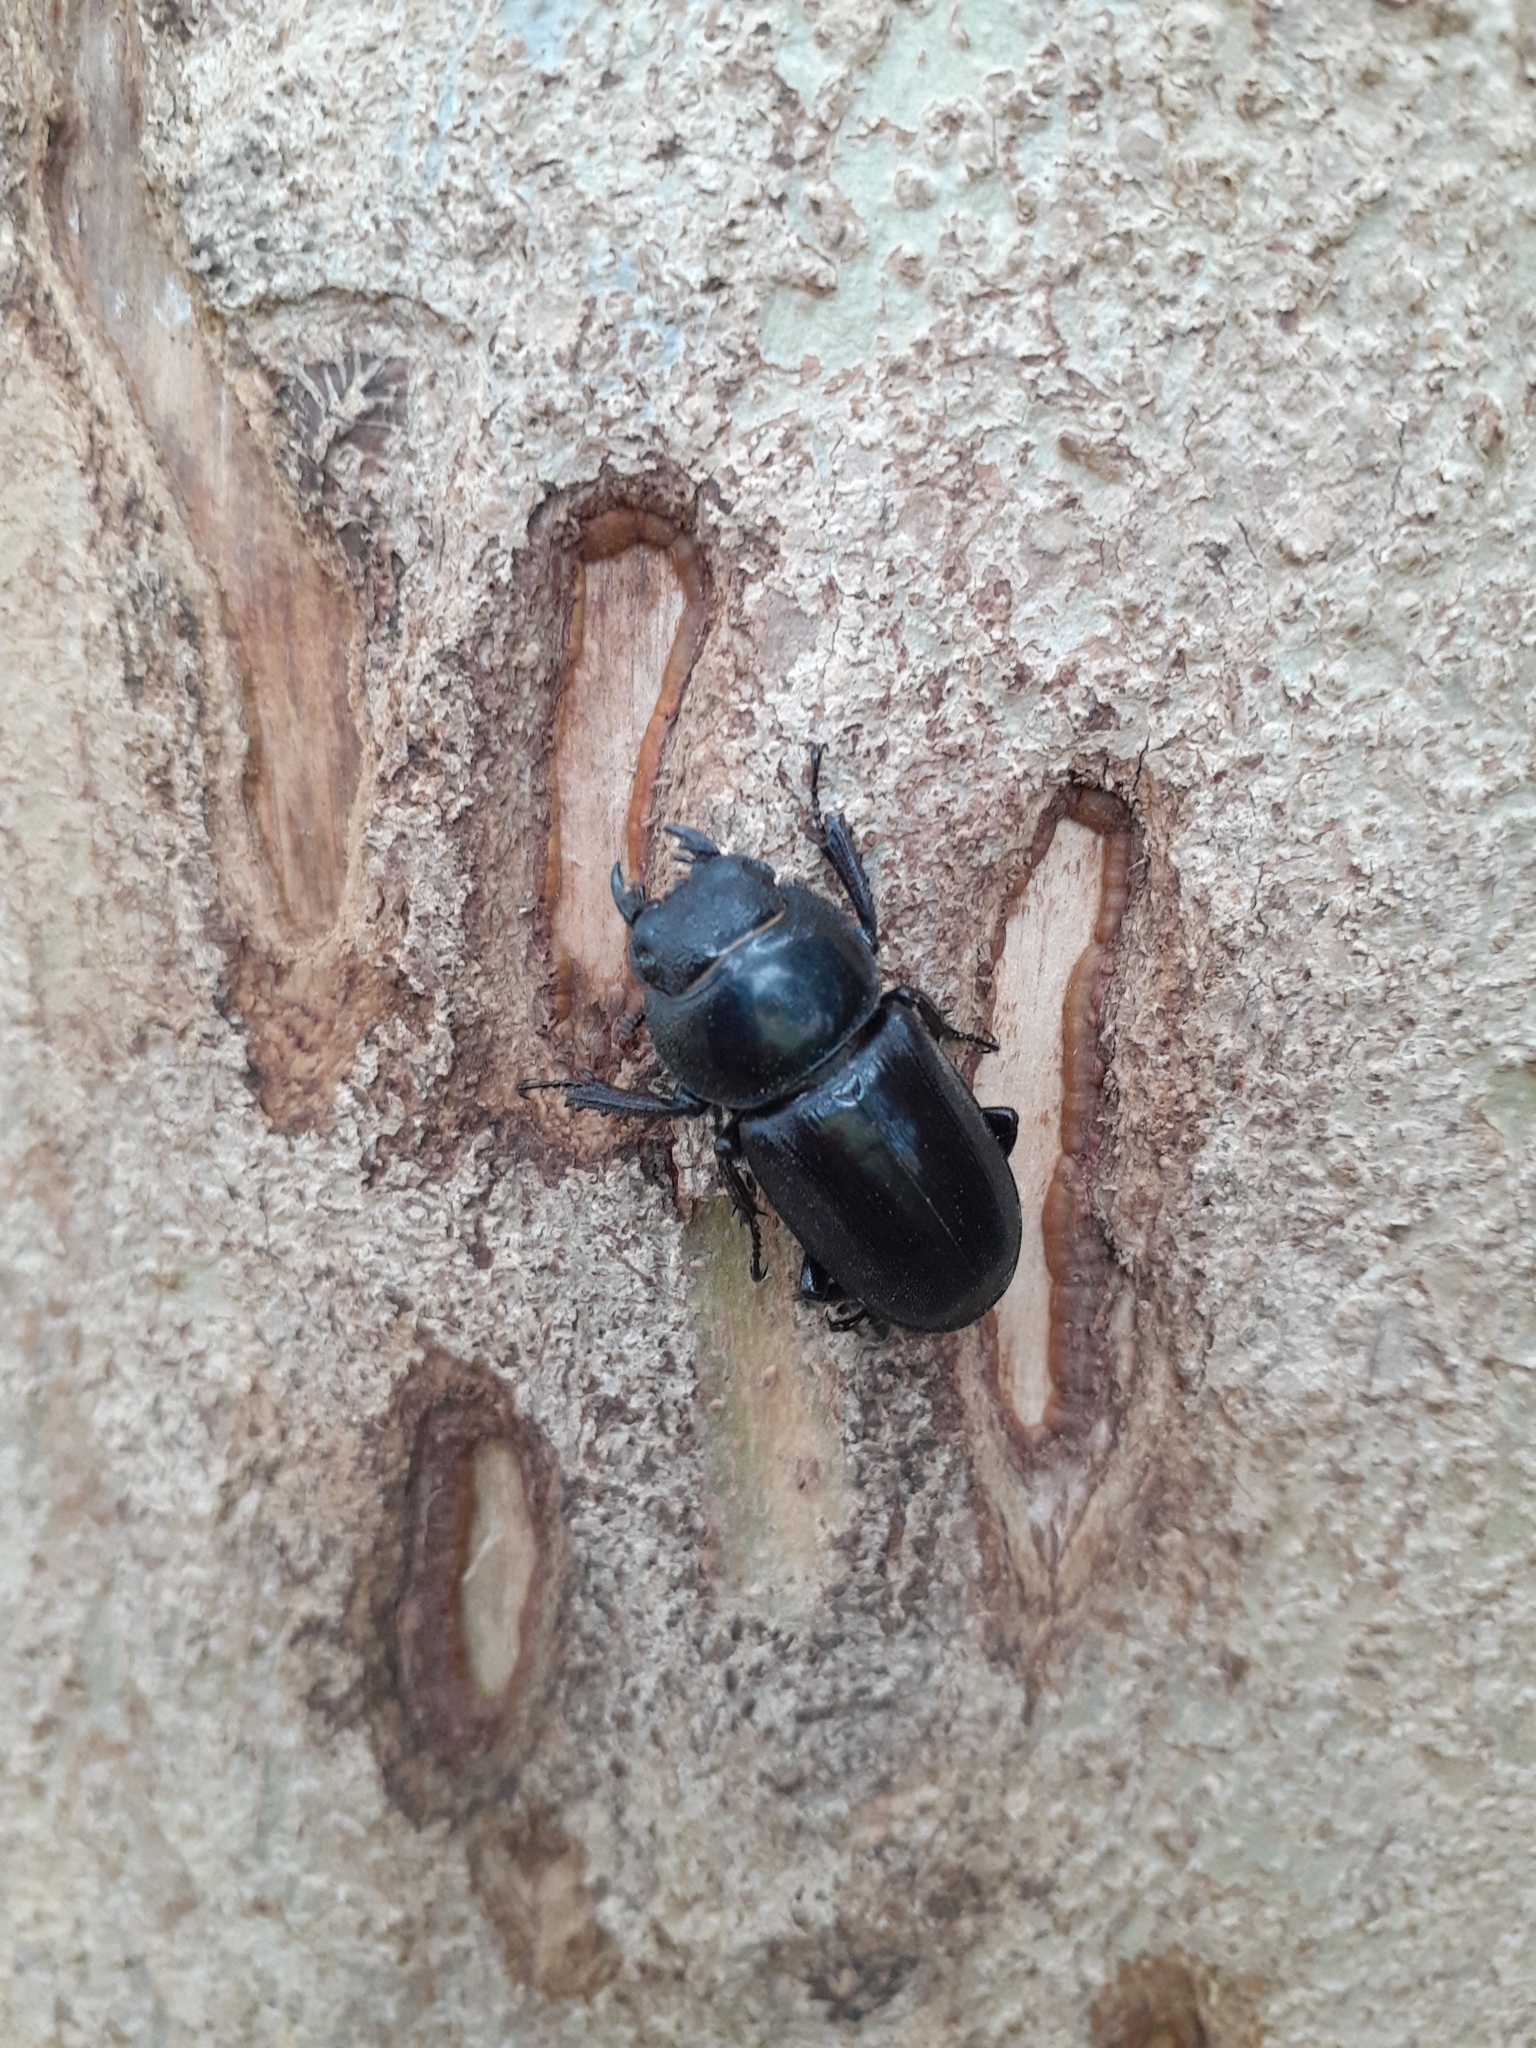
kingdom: Animalia
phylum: Arthropoda
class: Insecta
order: Coleoptera
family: Lucanidae
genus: Serrognathus
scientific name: Serrognathus titanus
